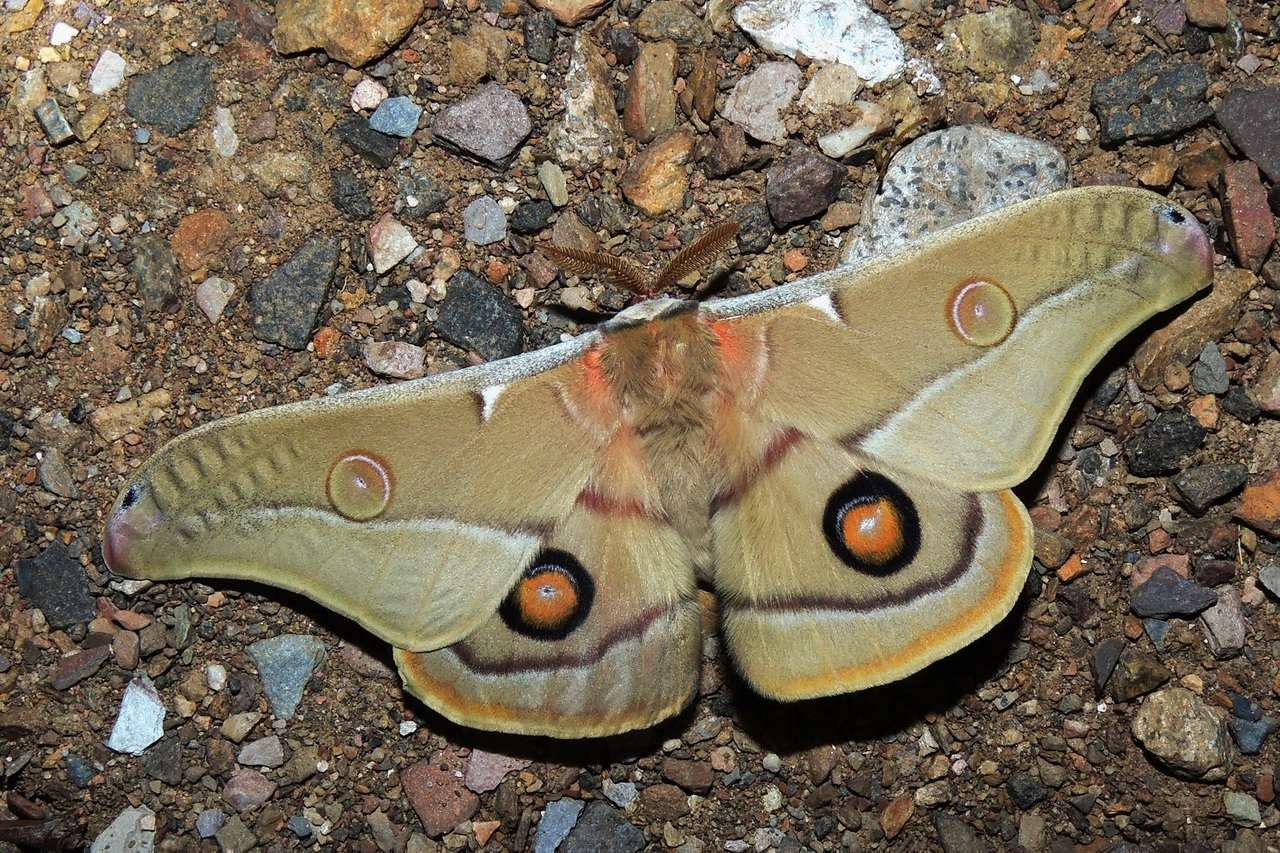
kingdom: Animalia
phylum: Arthropoda
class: Insecta
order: Lepidoptera
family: Saturniidae
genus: Opodiphthera
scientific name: Opodiphthera
